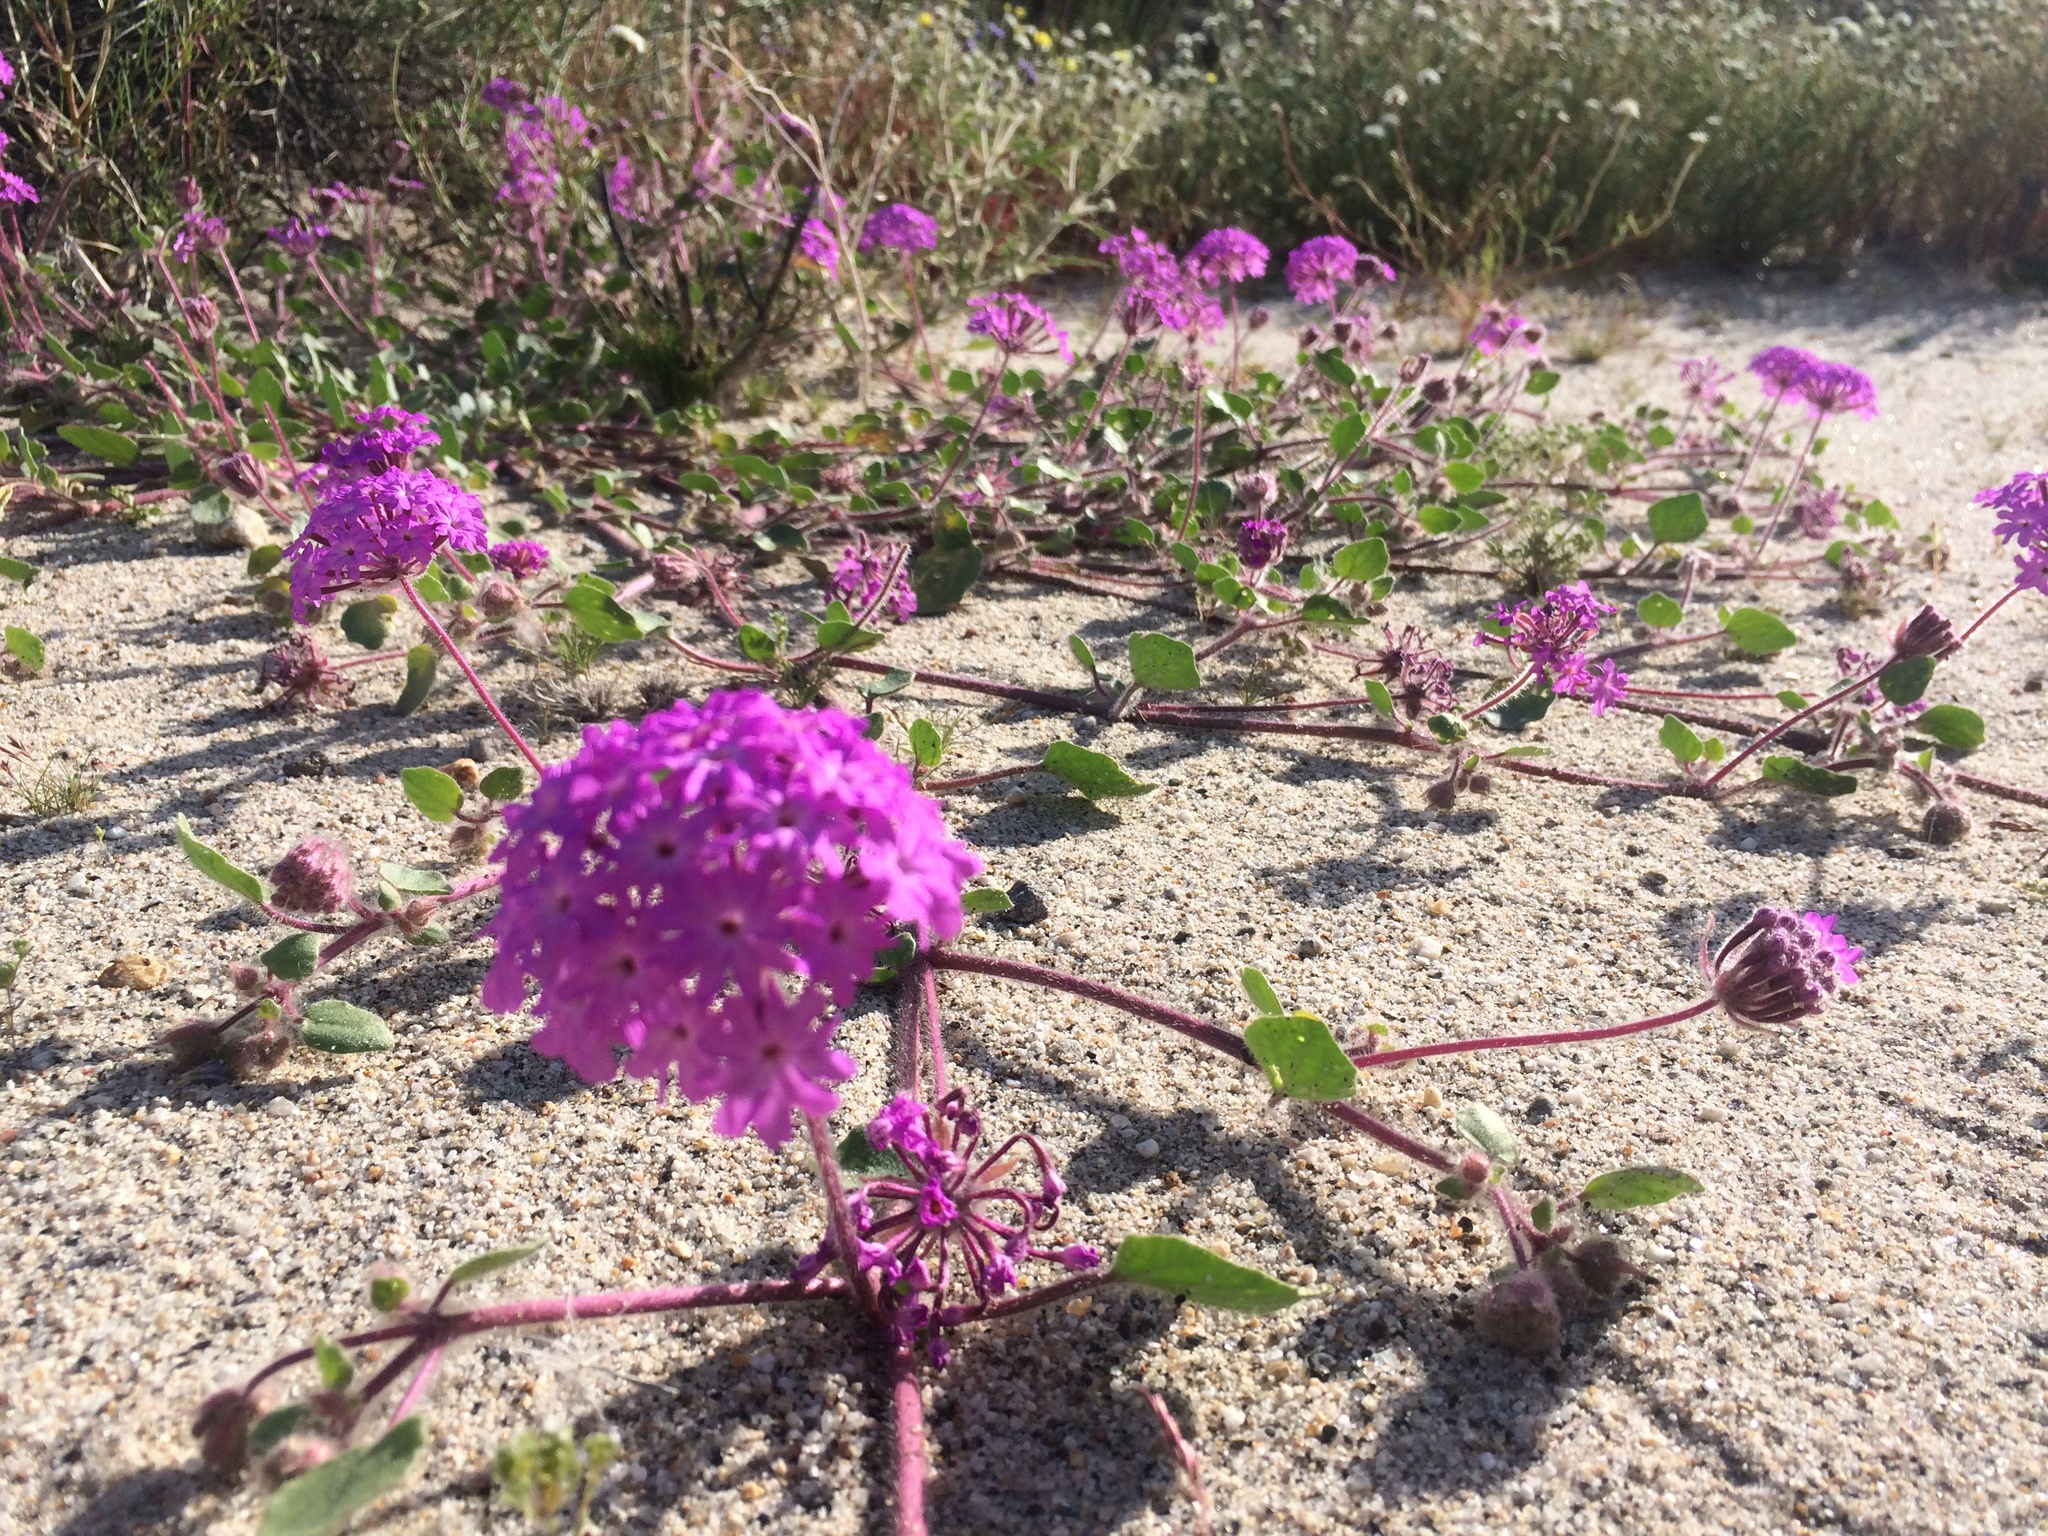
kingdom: Plantae
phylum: Tracheophyta
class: Magnoliopsida
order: Caryophyllales
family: Nyctaginaceae
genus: Abronia
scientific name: Abronia villosa
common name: Desert sand-verbena
